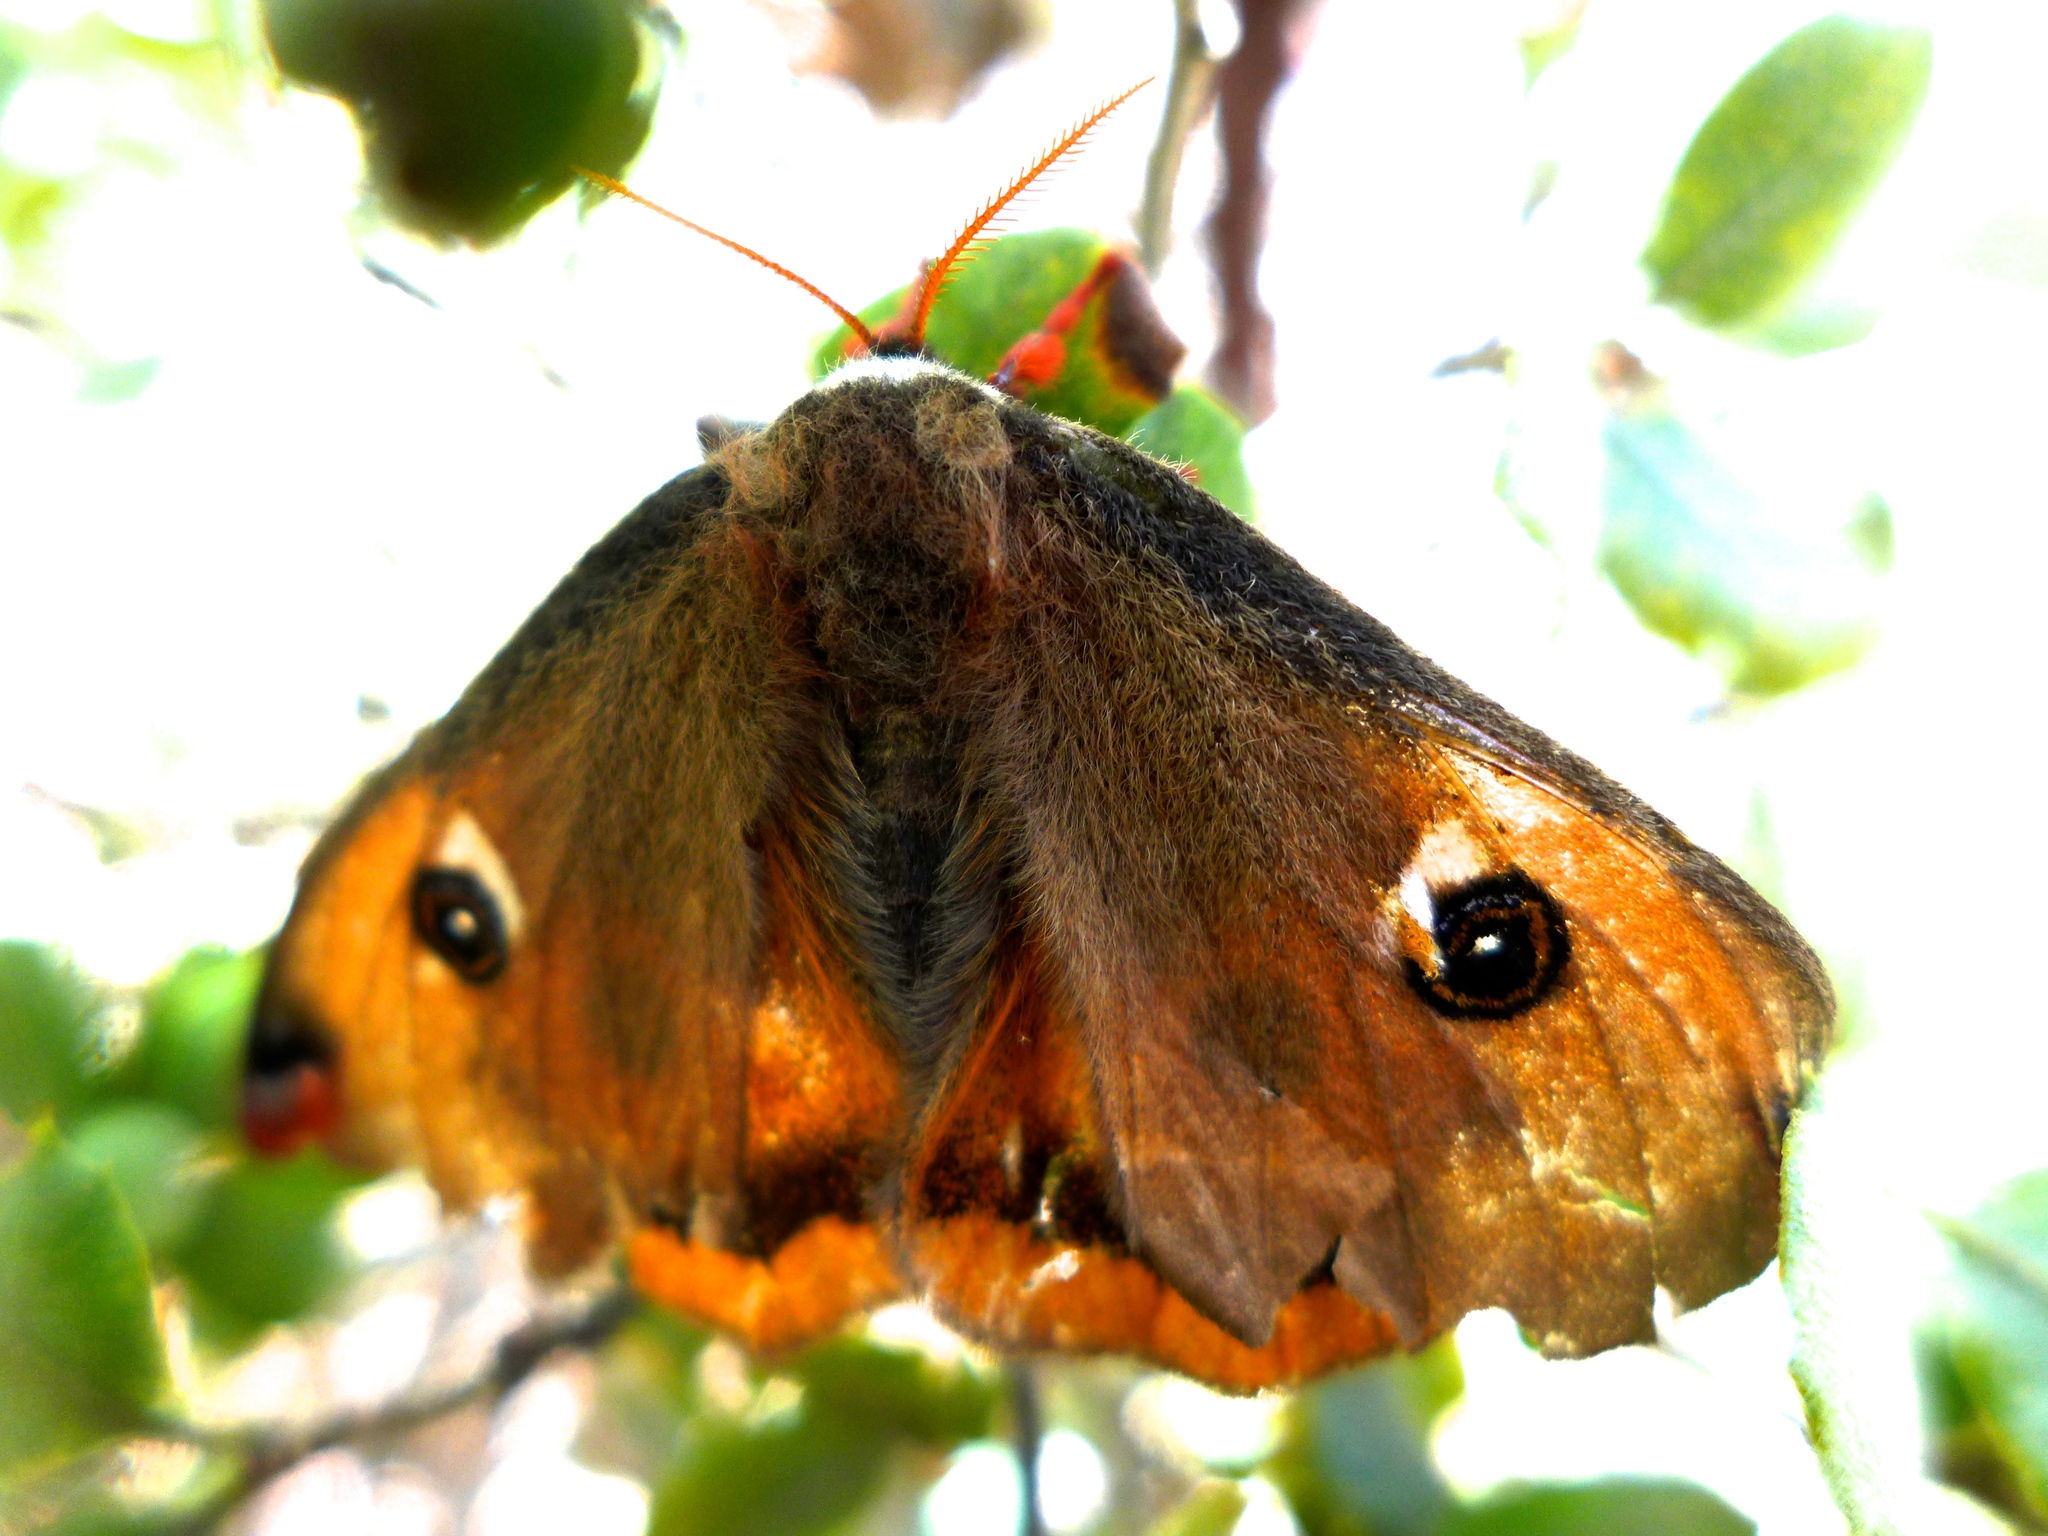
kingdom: Animalia
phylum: Arthropoda
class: Insecta
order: Lepidoptera
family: Saturniidae
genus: Saturnia
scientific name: Saturnia mendocino
